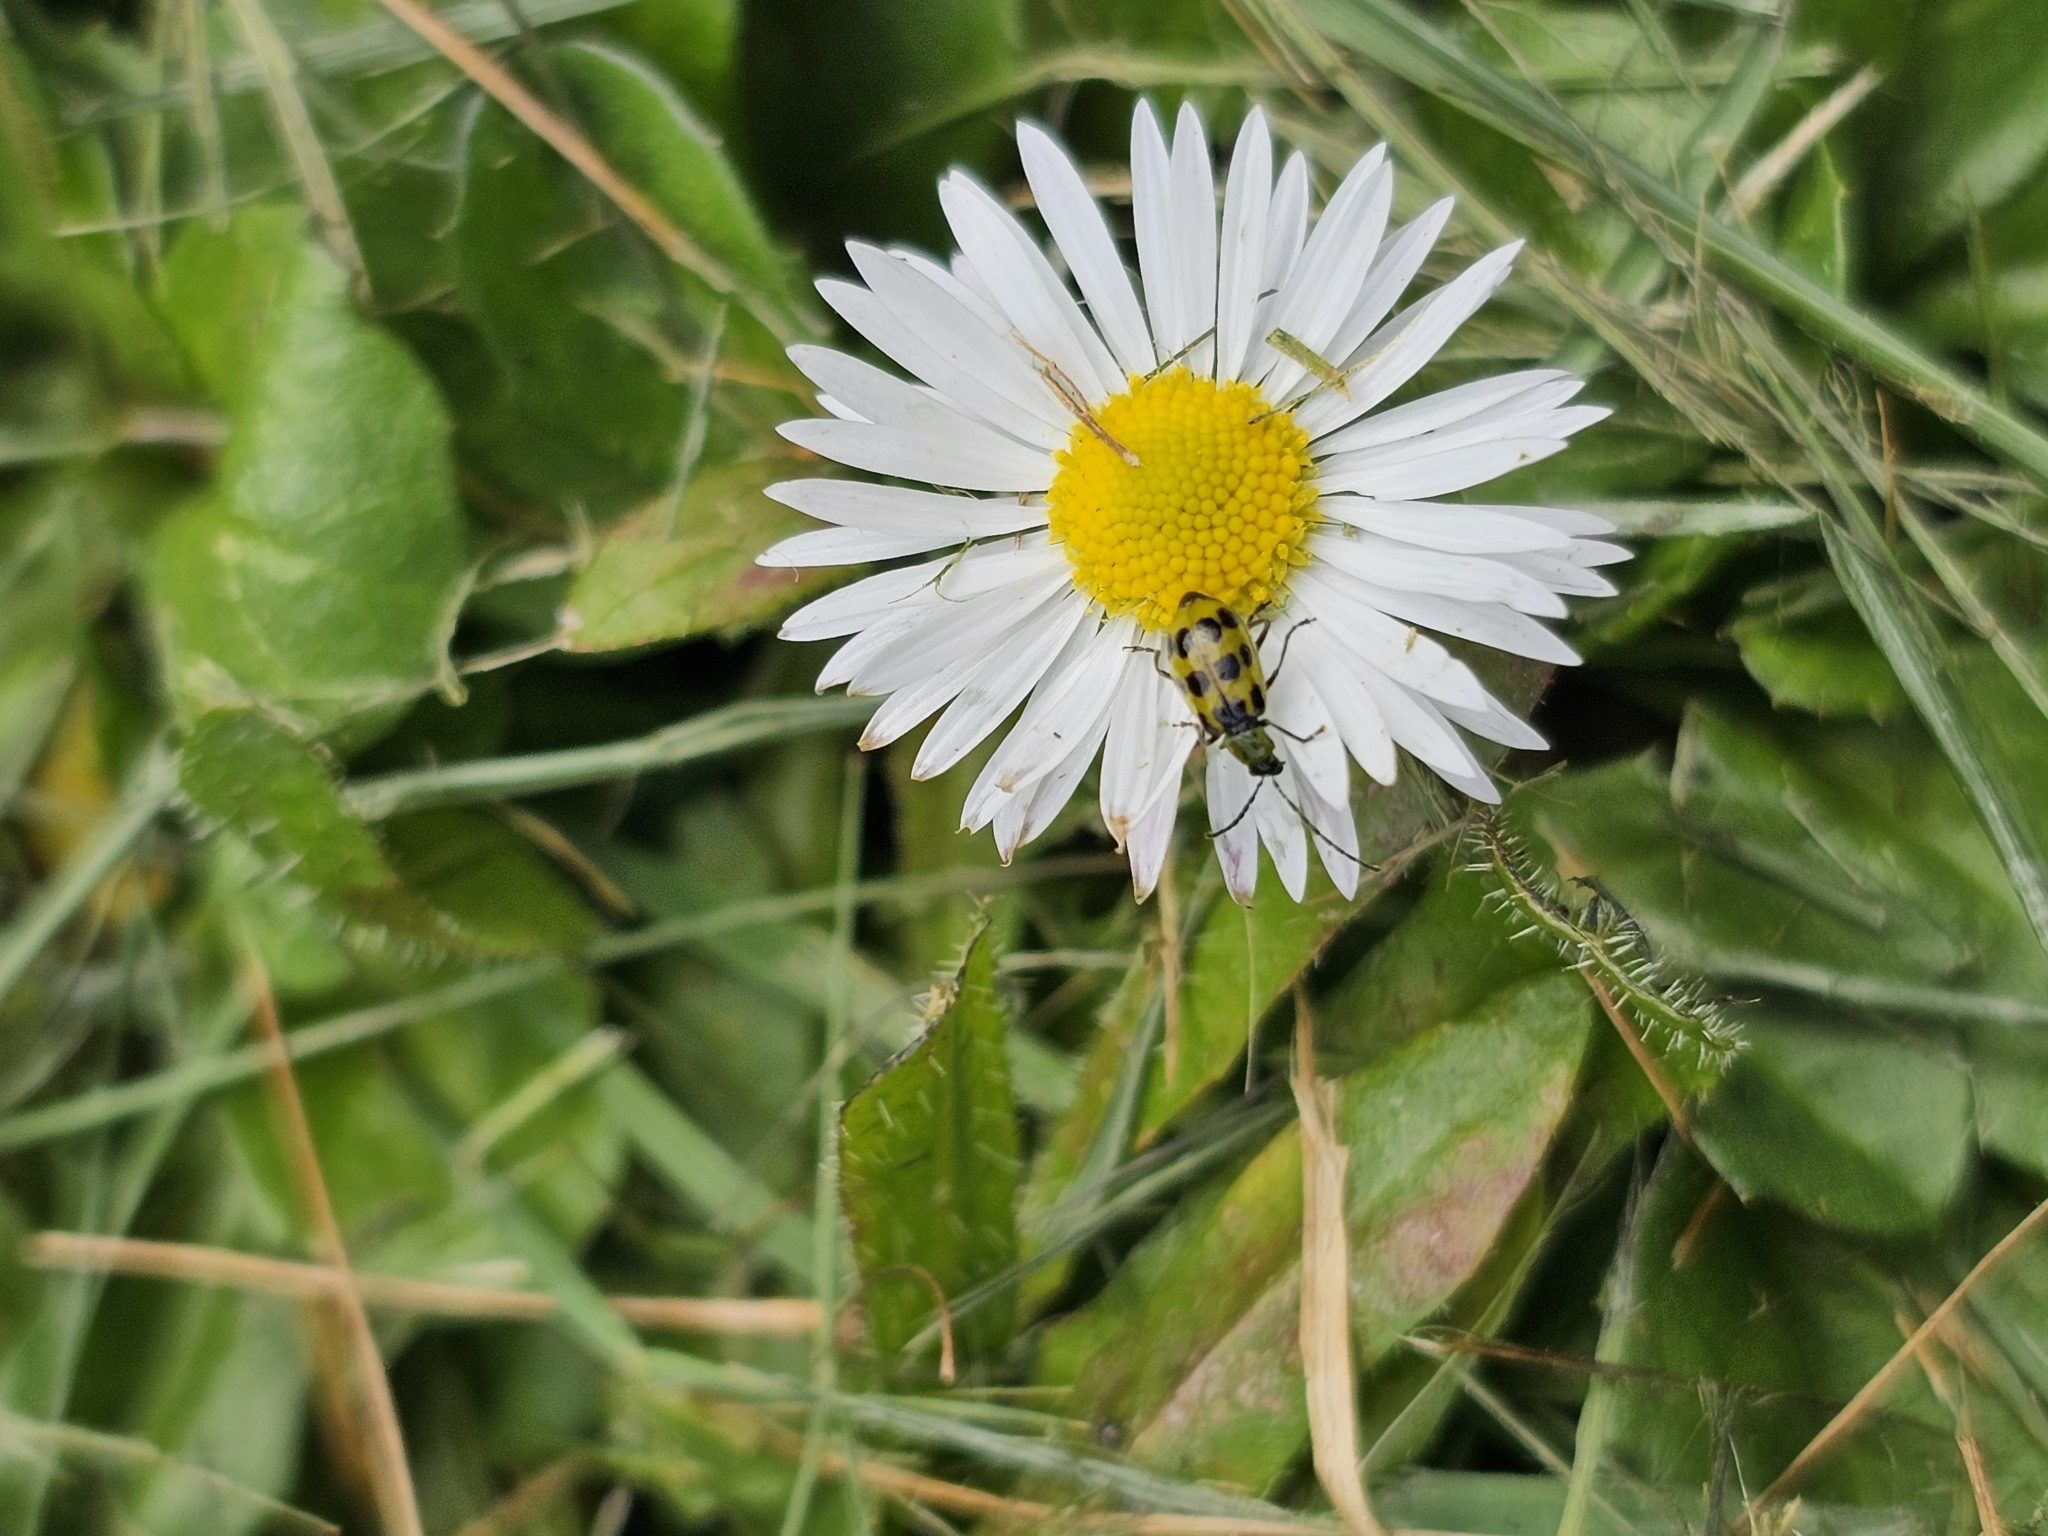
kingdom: Animalia
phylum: Arthropoda
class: Insecta
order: Coleoptera
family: Chrysomelidae
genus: Diabrotica
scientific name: Diabrotica undecimpunctata
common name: Spotted cucumber beetle
